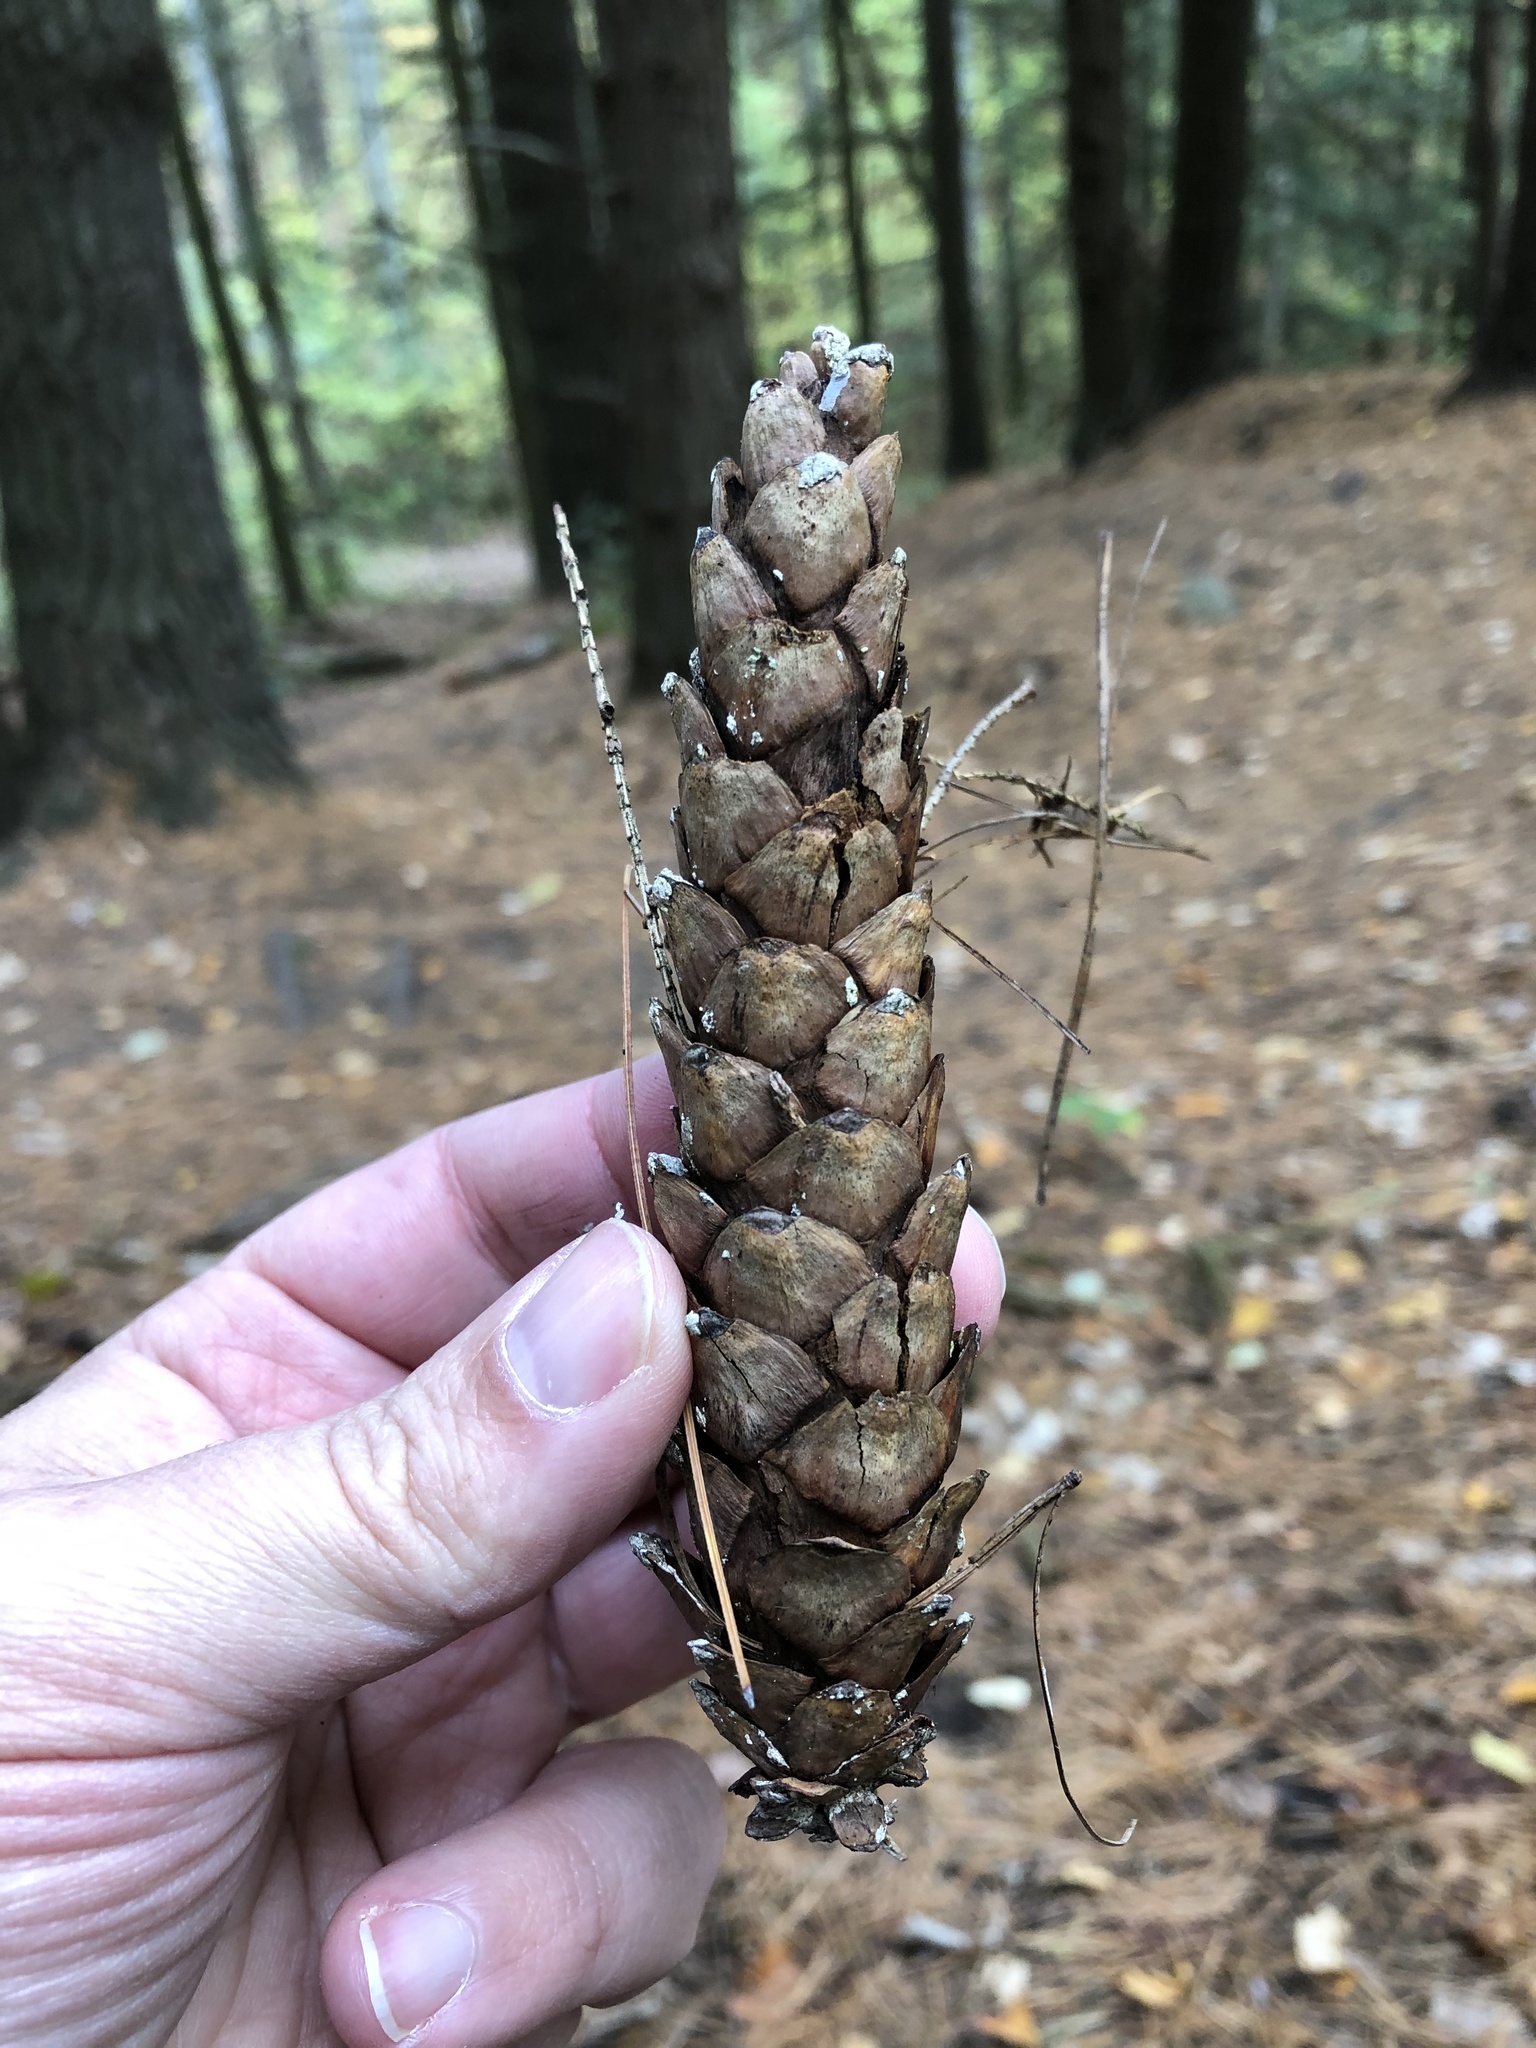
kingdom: Plantae
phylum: Tracheophyta
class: Pinopsida
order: Pinales
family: Pinaceae
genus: Pinus
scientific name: Pinus strobus
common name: Weymouth pine
